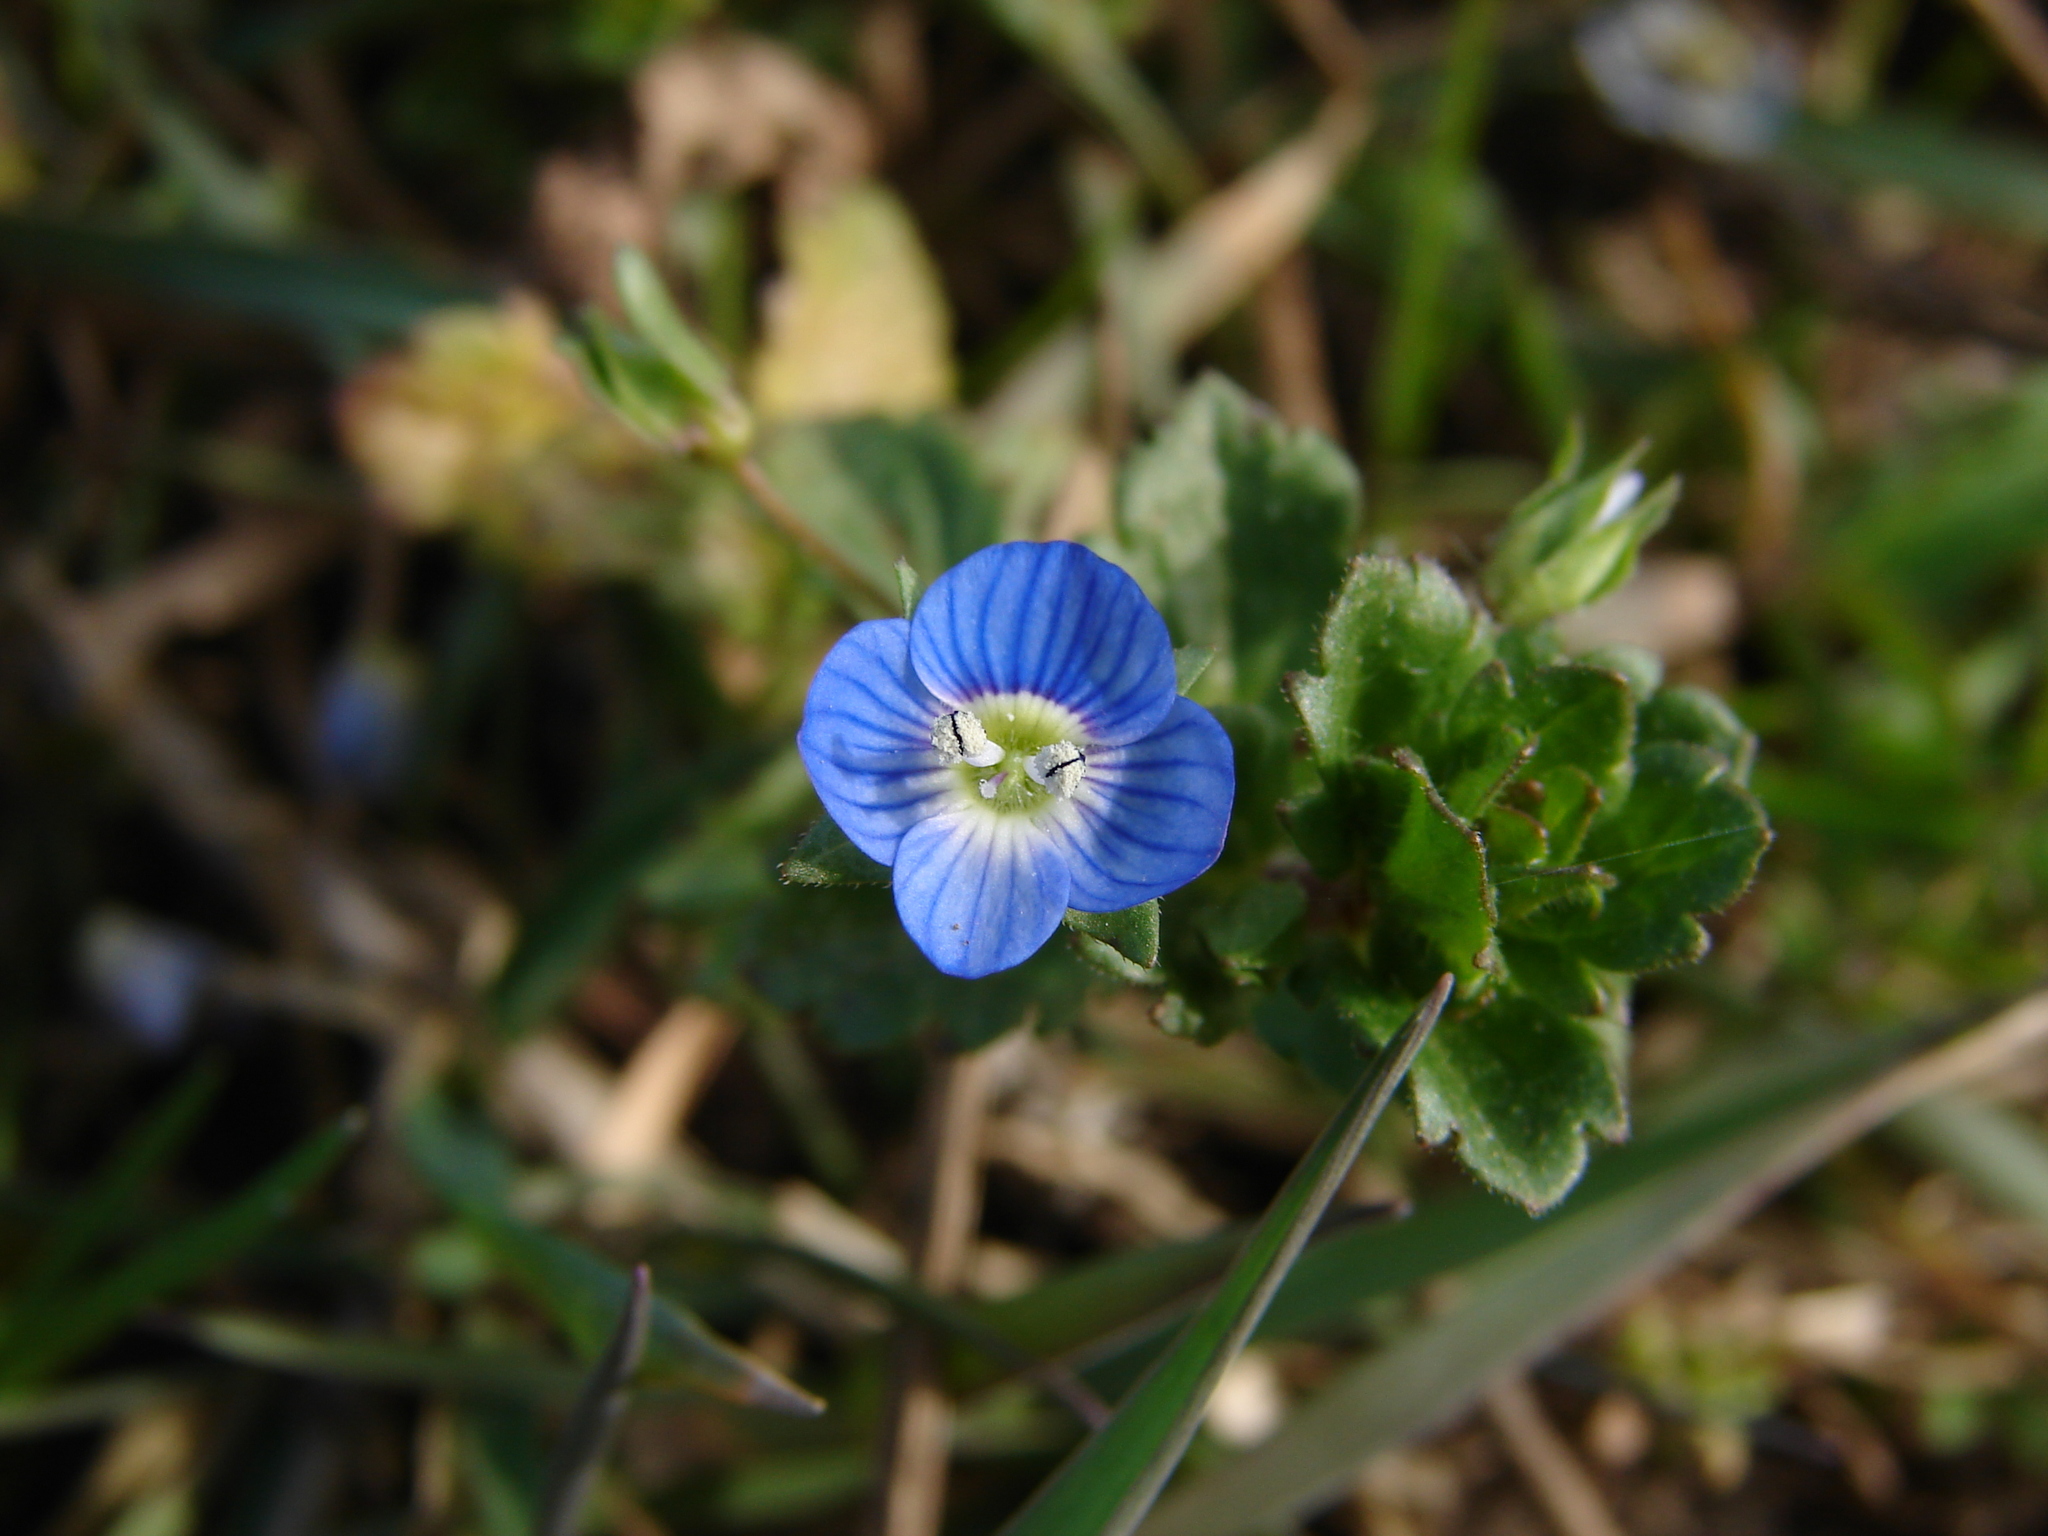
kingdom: Plantae
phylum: Tracheophyta
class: Magnoliopsida
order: Lamiales
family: Plantaginaceae
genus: Veronica
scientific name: Veronica persica
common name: Common field-speedwell
